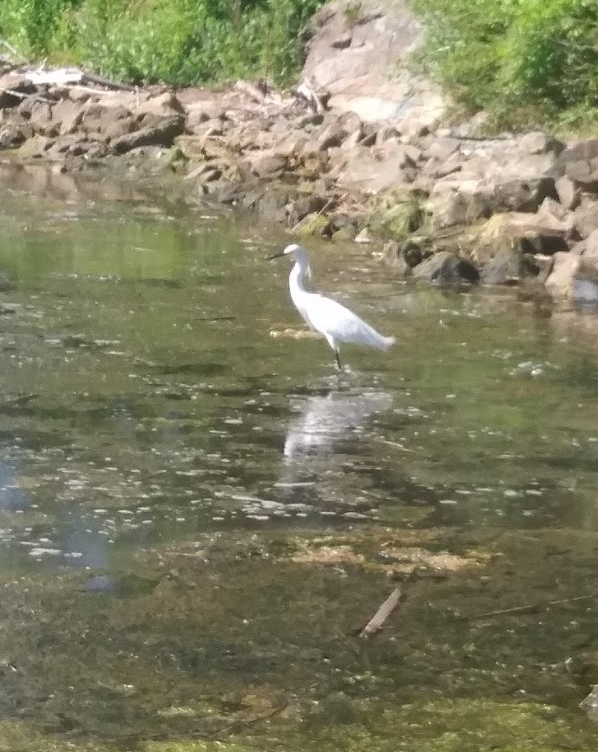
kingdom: Animalia
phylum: Chordata
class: Aves
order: Pelecaniformes
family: Ardeidae
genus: Egretta
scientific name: Egretta thula
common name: Snowy egret
